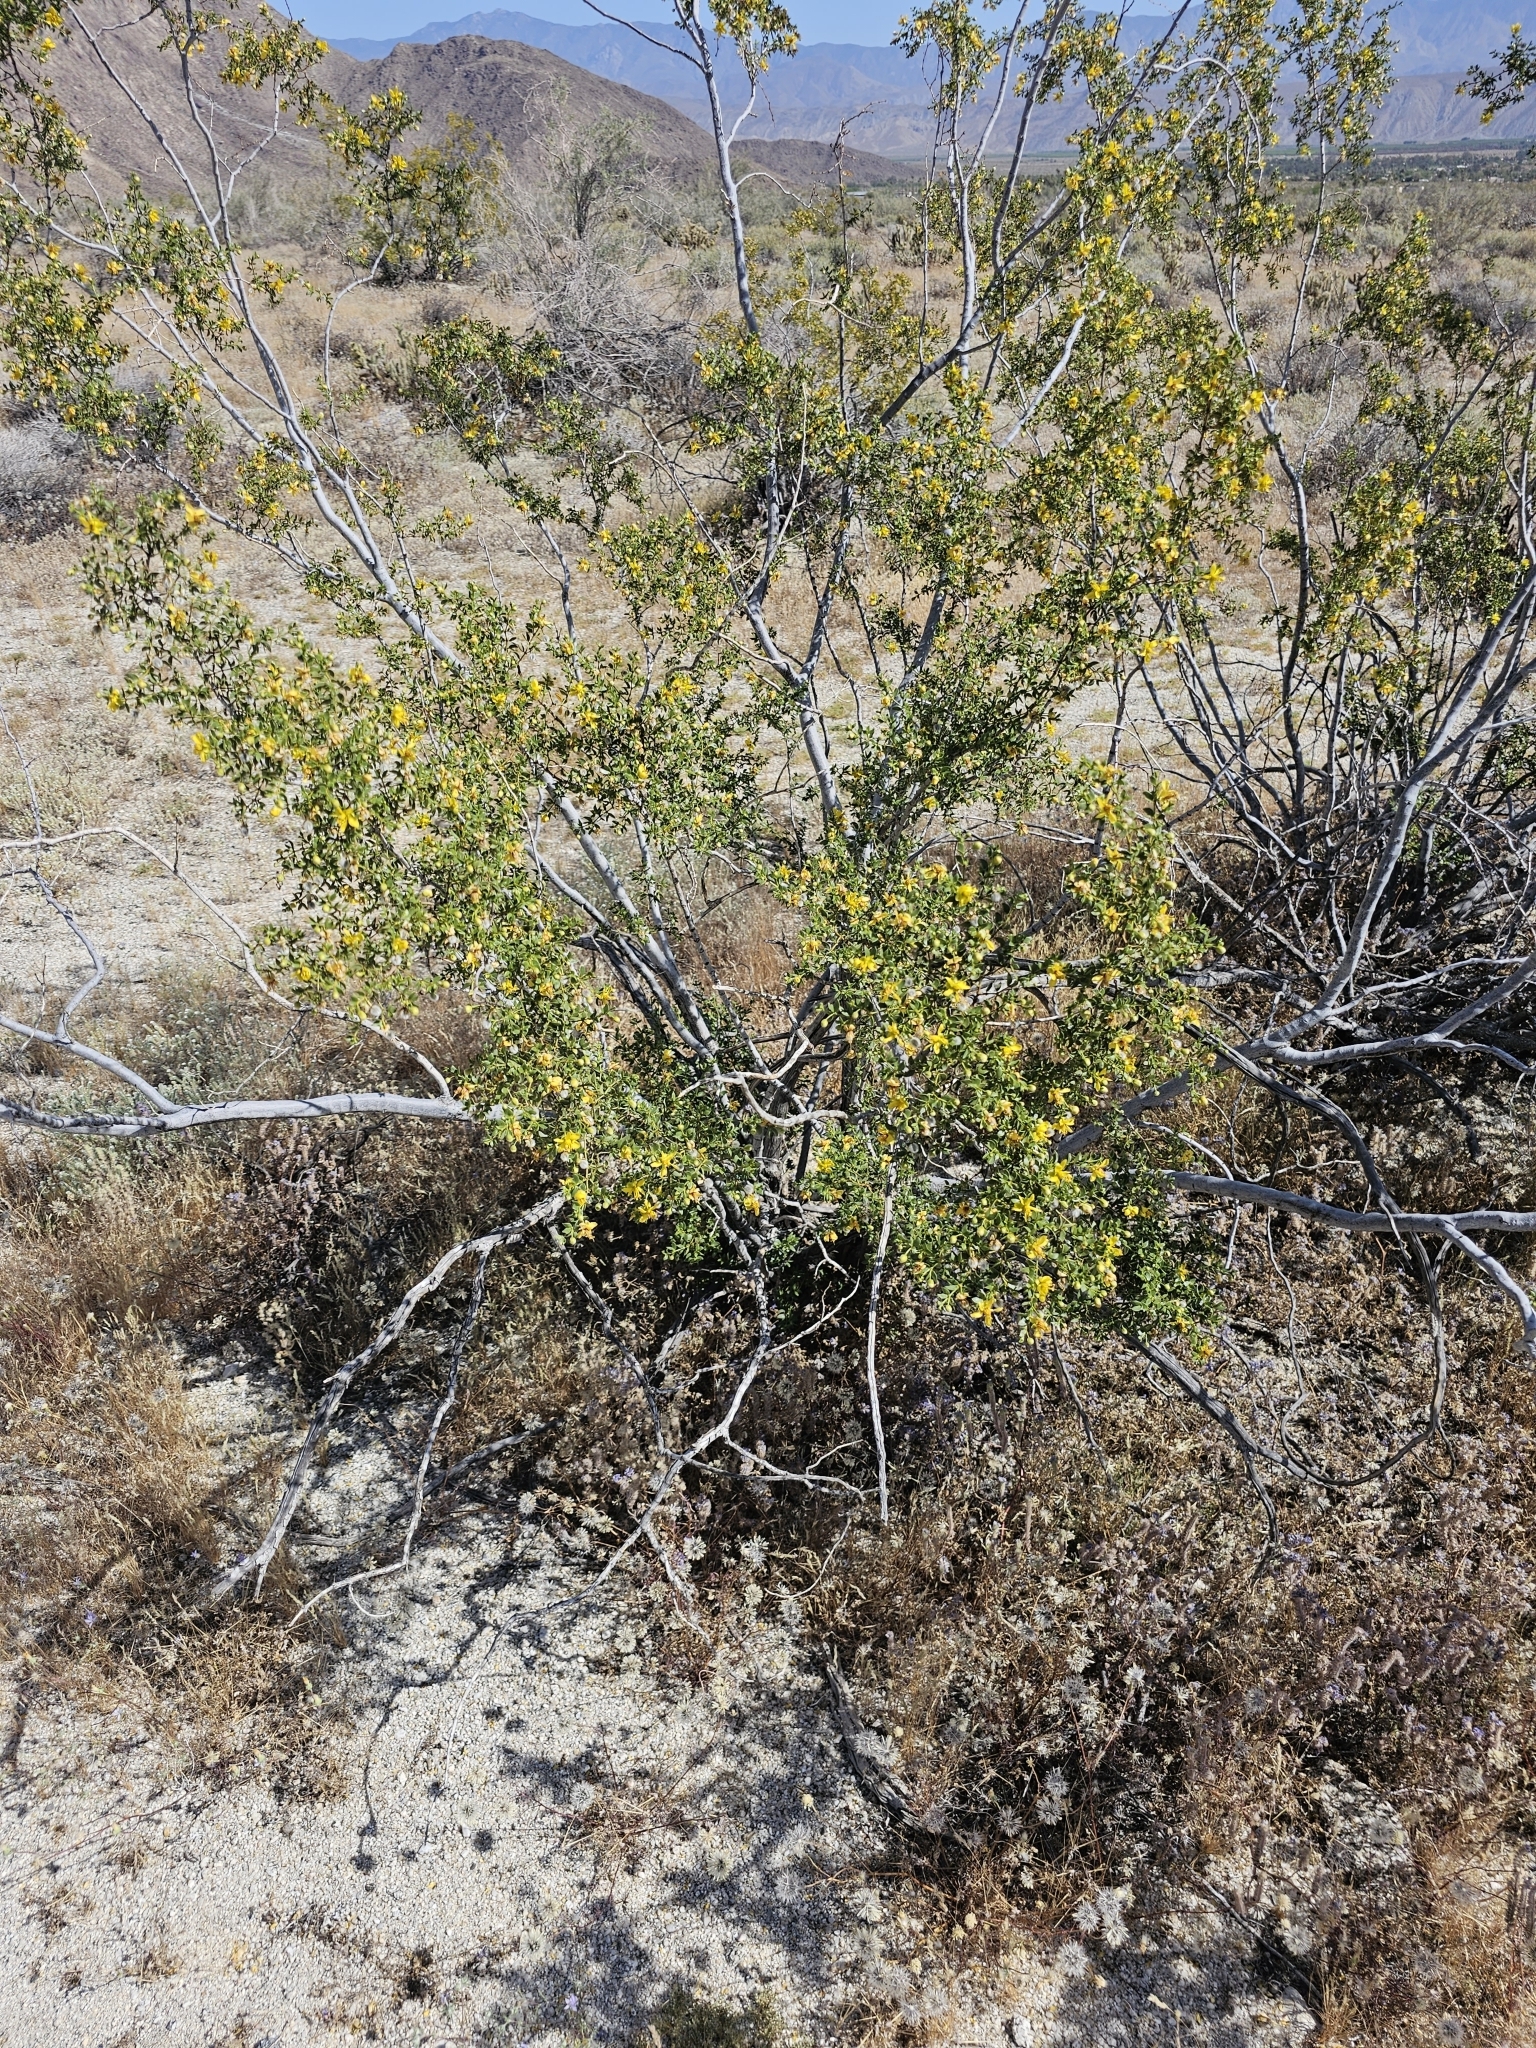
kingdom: Plantae
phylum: Tracheophyta
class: Magnoliopsida
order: Zygophyllales
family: Zygophyllaceae
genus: Larrea
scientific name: Larrea tridentata
